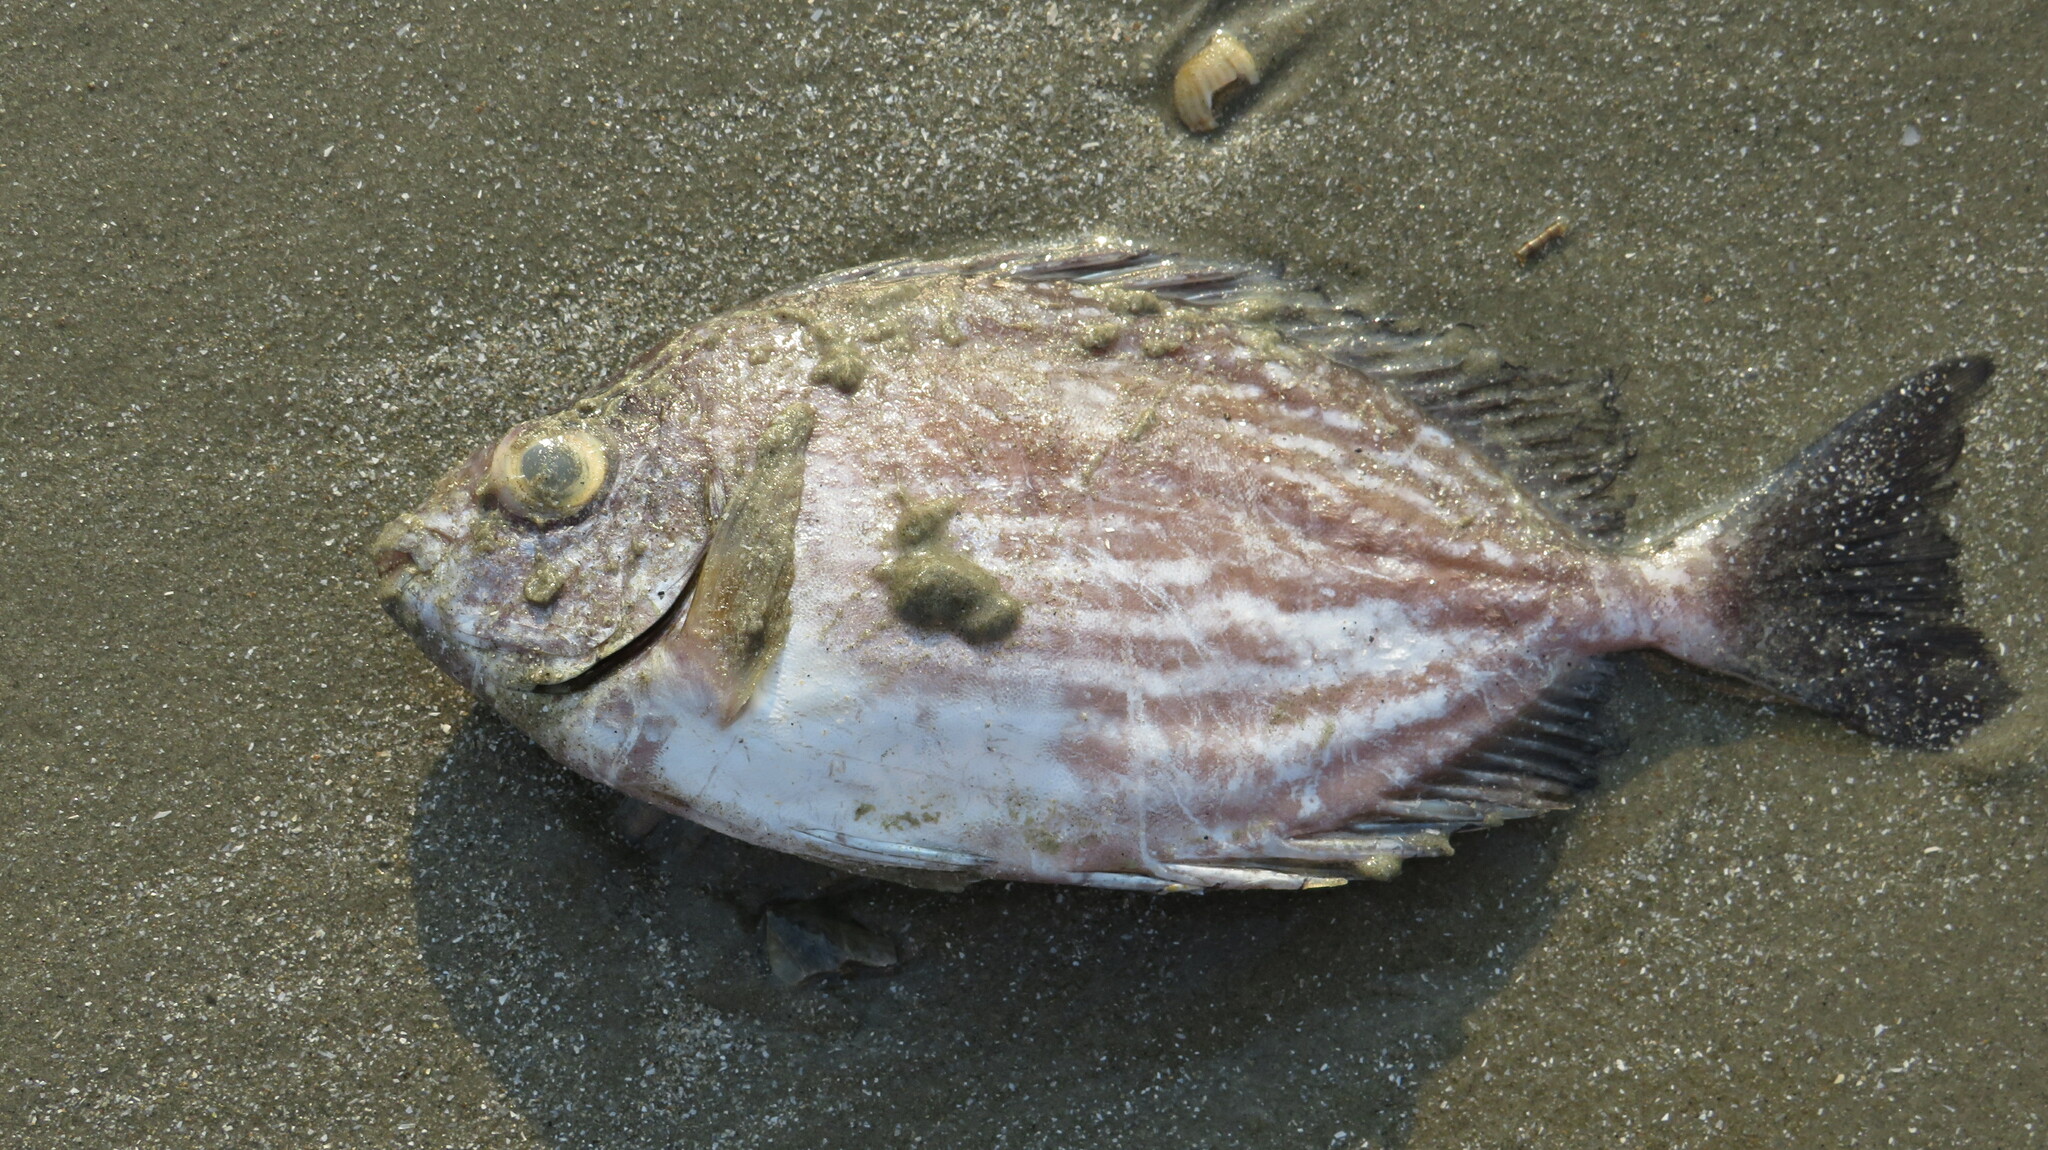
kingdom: Animalia
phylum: Chordata
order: Perciformes
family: Siganidae
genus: Siganus
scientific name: Siganus javus
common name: Java rabbitfish
